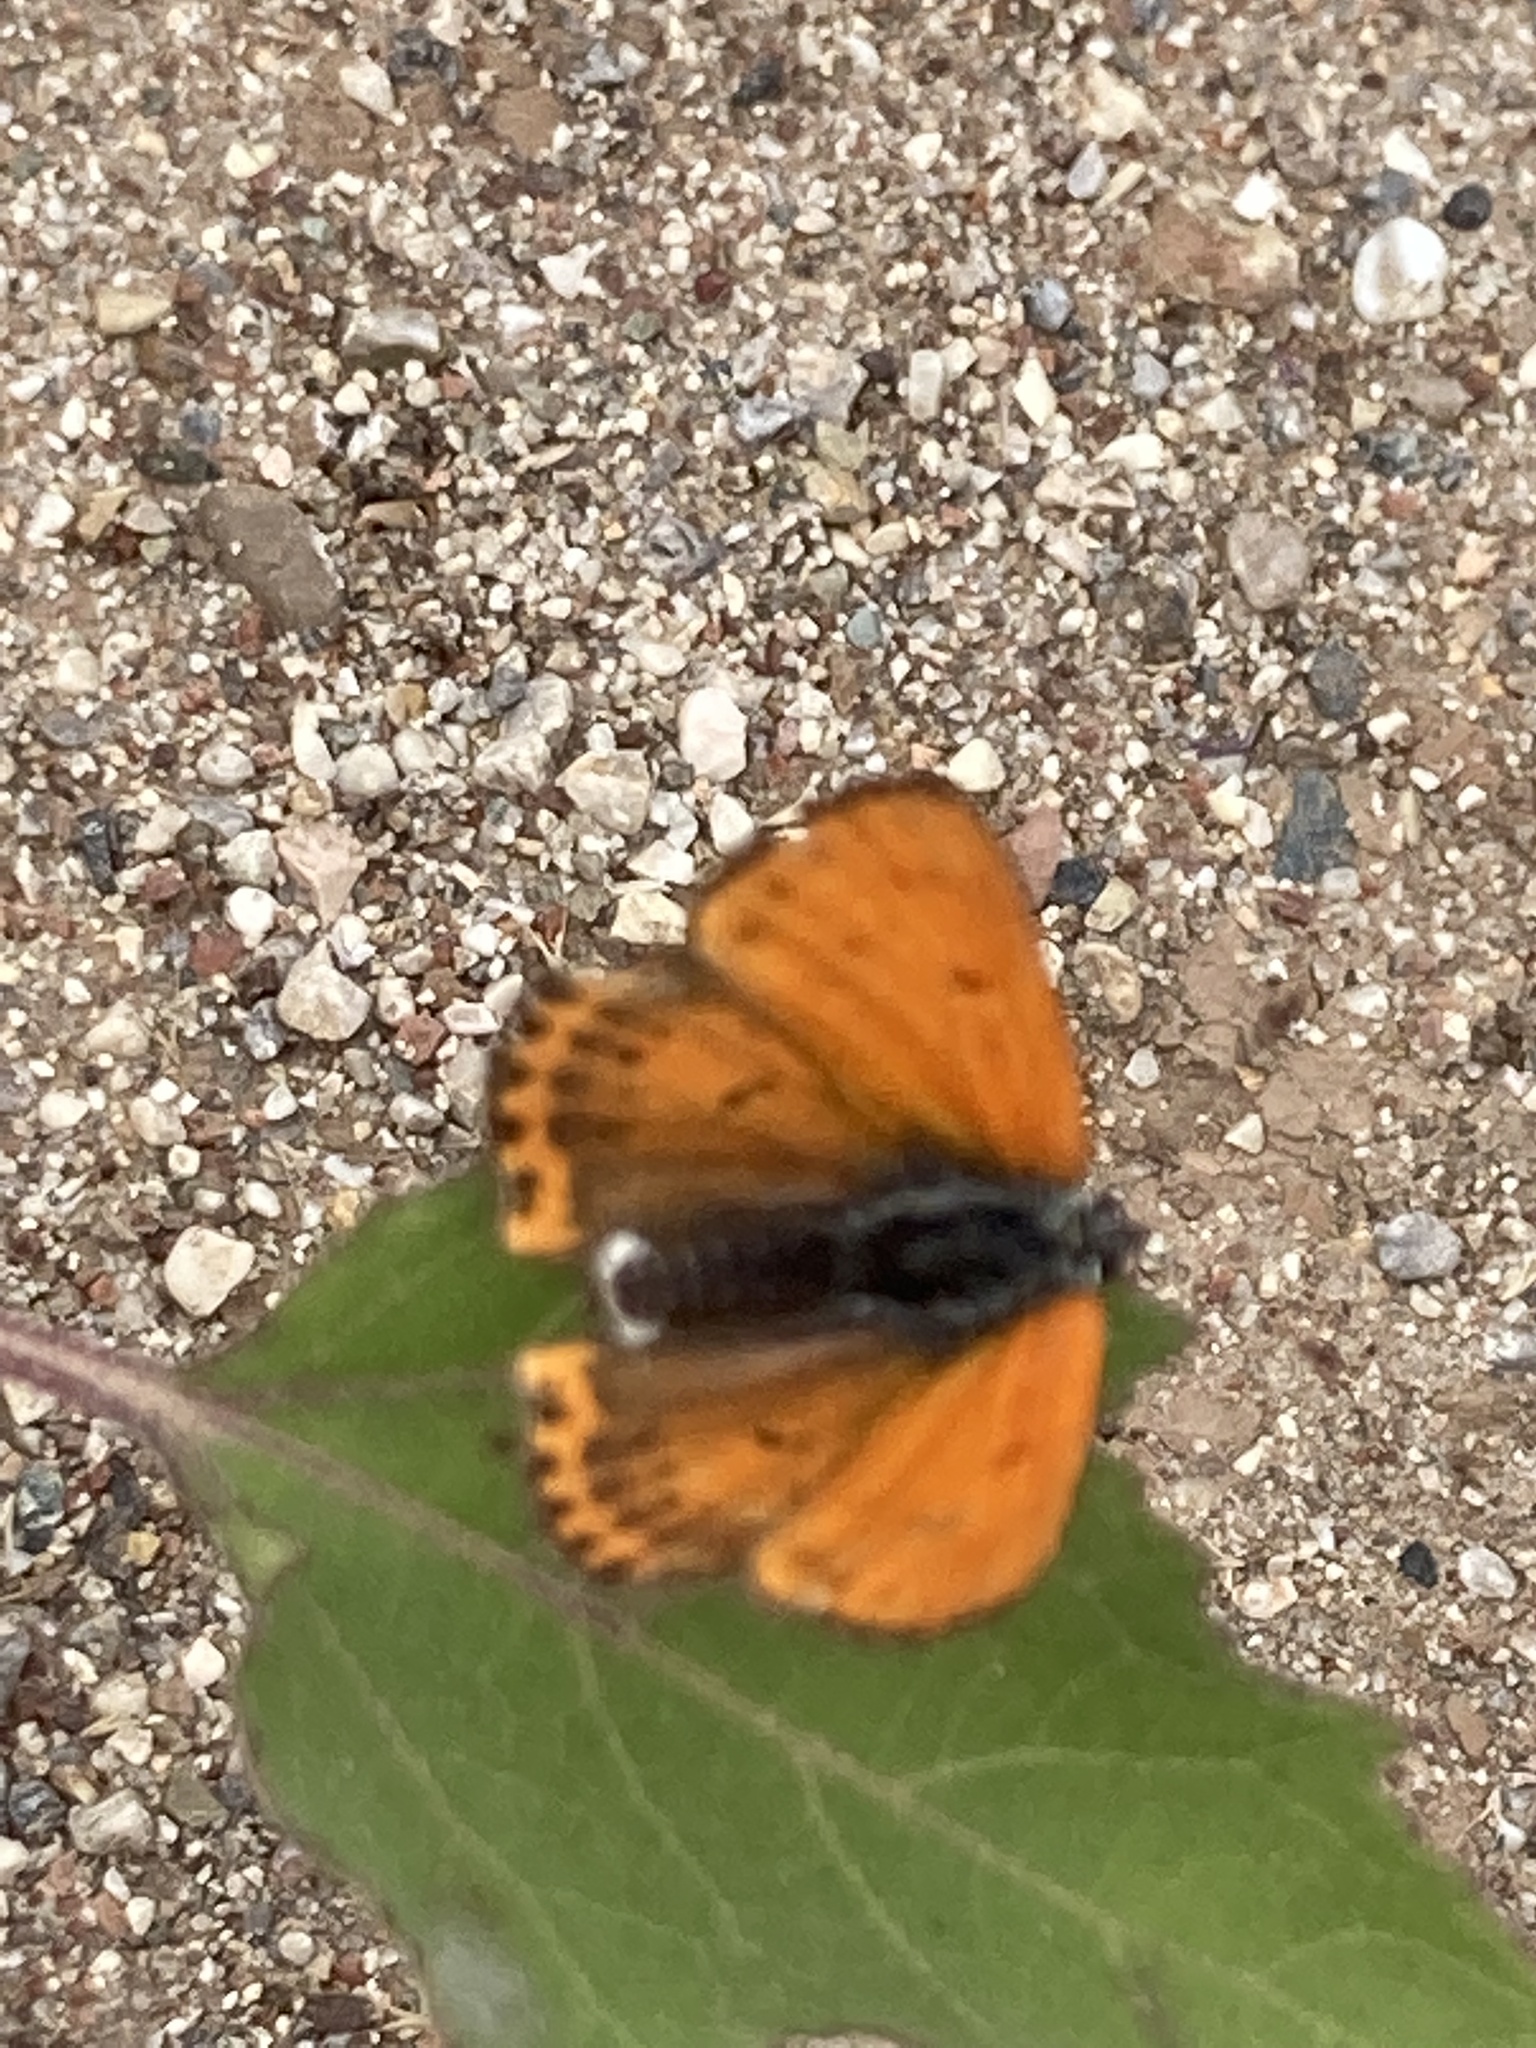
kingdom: Animalia
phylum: Arthropoda
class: Insecta
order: Lepidoptera
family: Lycaenidae
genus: Thersamonia
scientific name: Thersamonia thersamon
